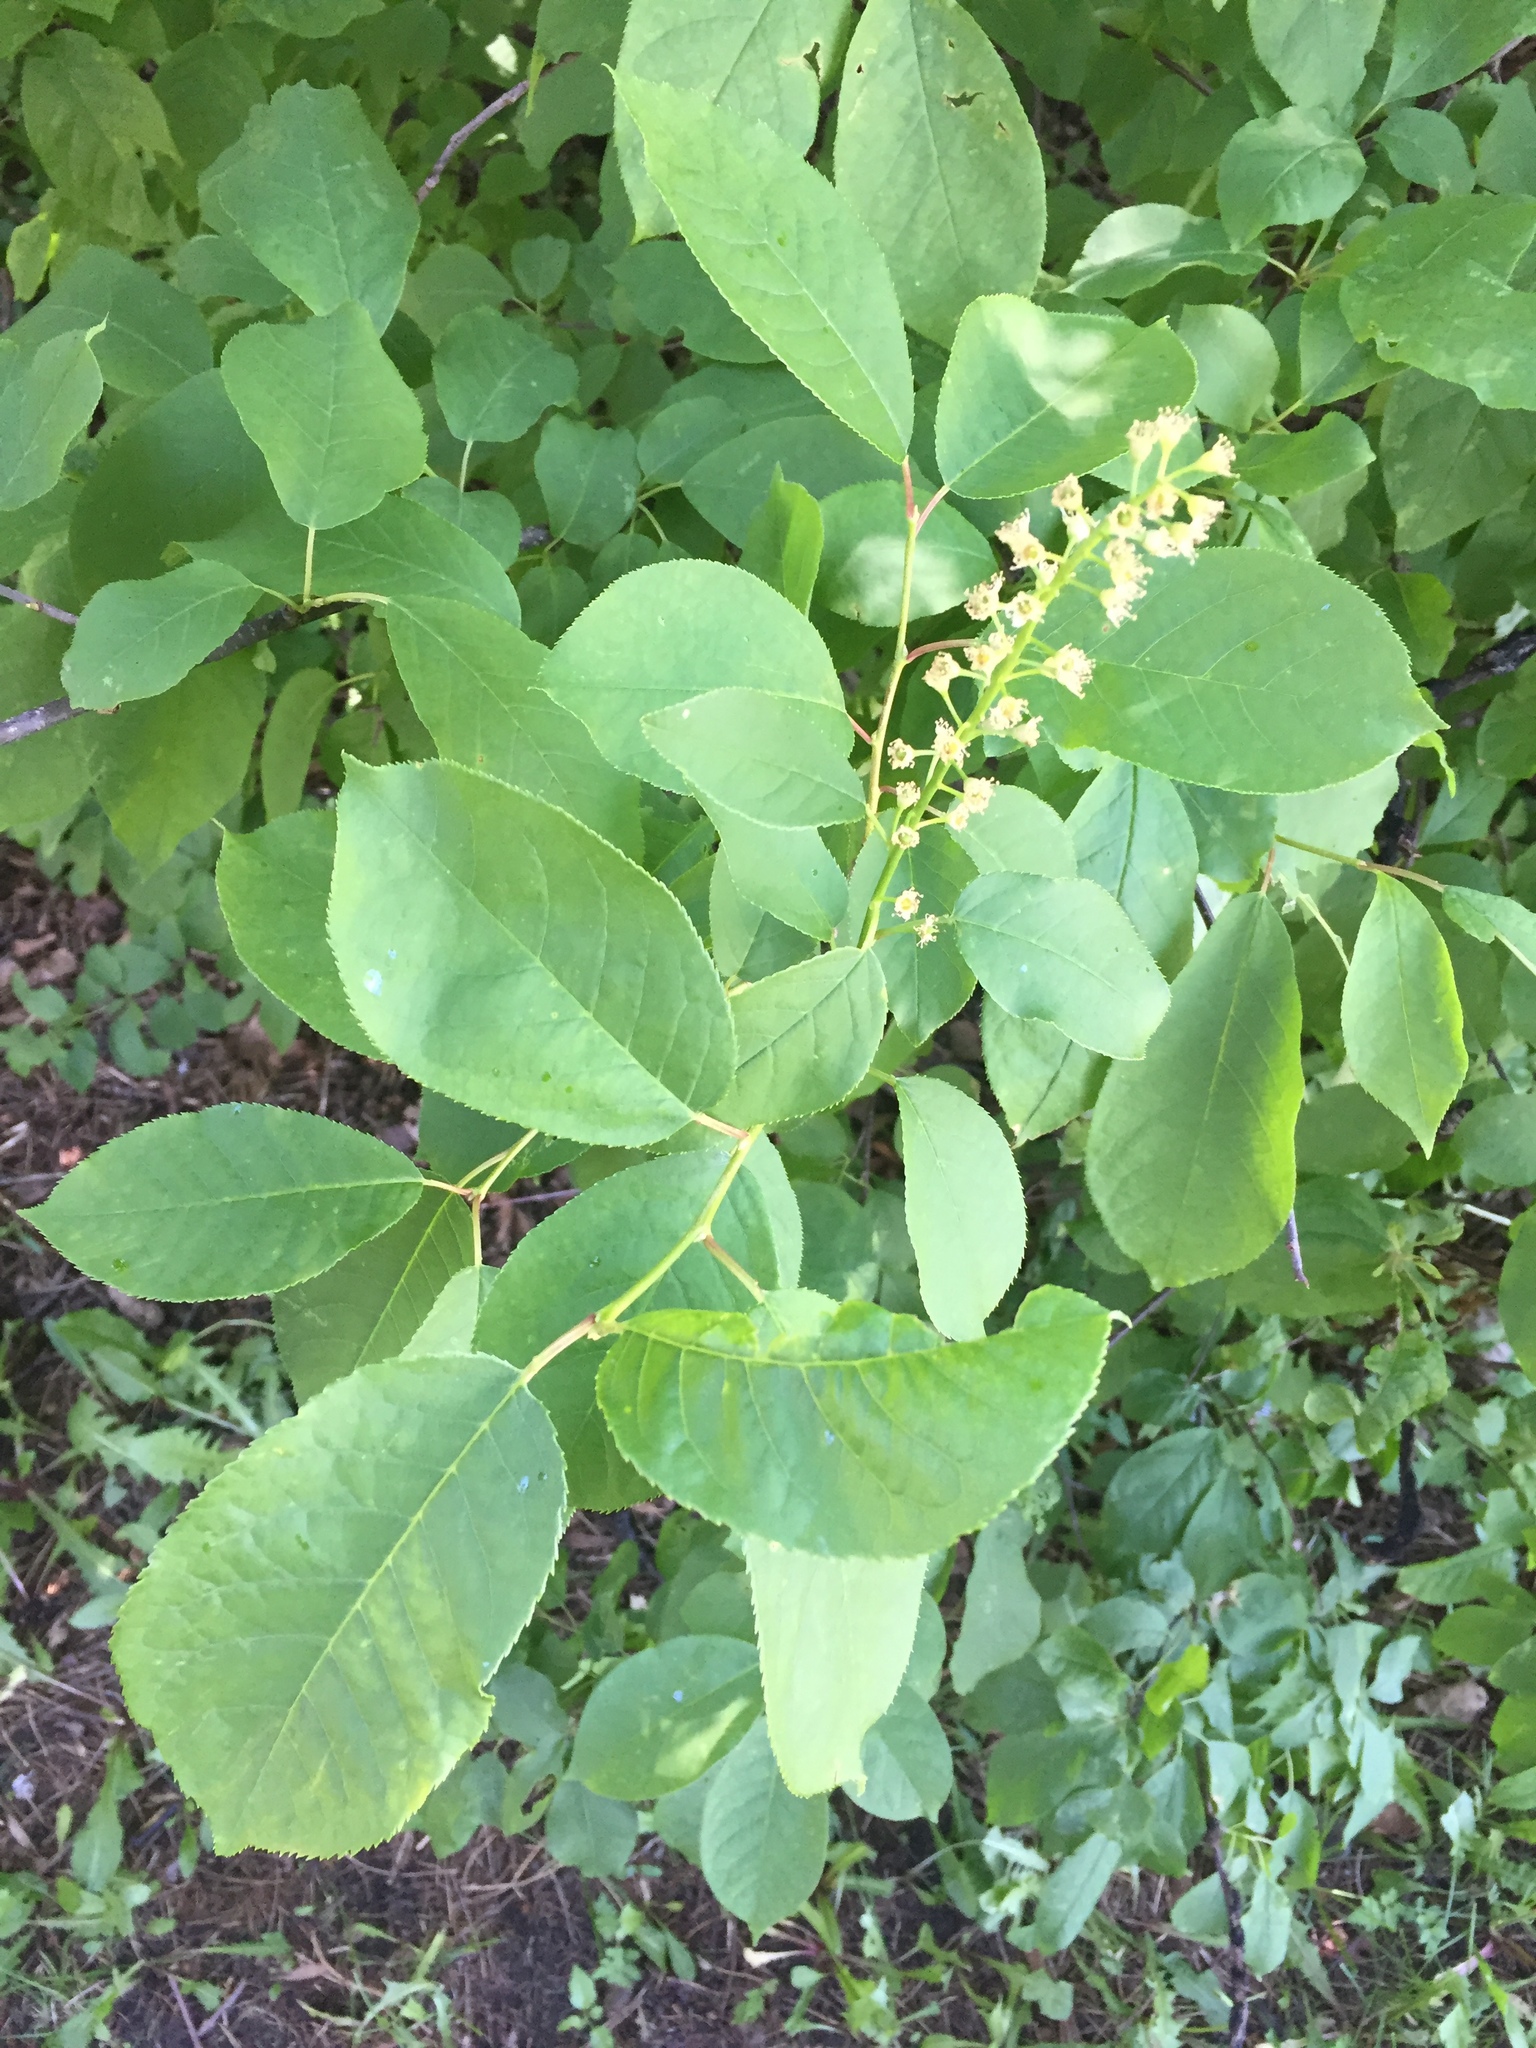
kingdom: Plantae
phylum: Tracheophyta
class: Magnoliopsida
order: Rosales
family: Rosaceae
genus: Prunus
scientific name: Prunus virginiana
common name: Chokecherry
